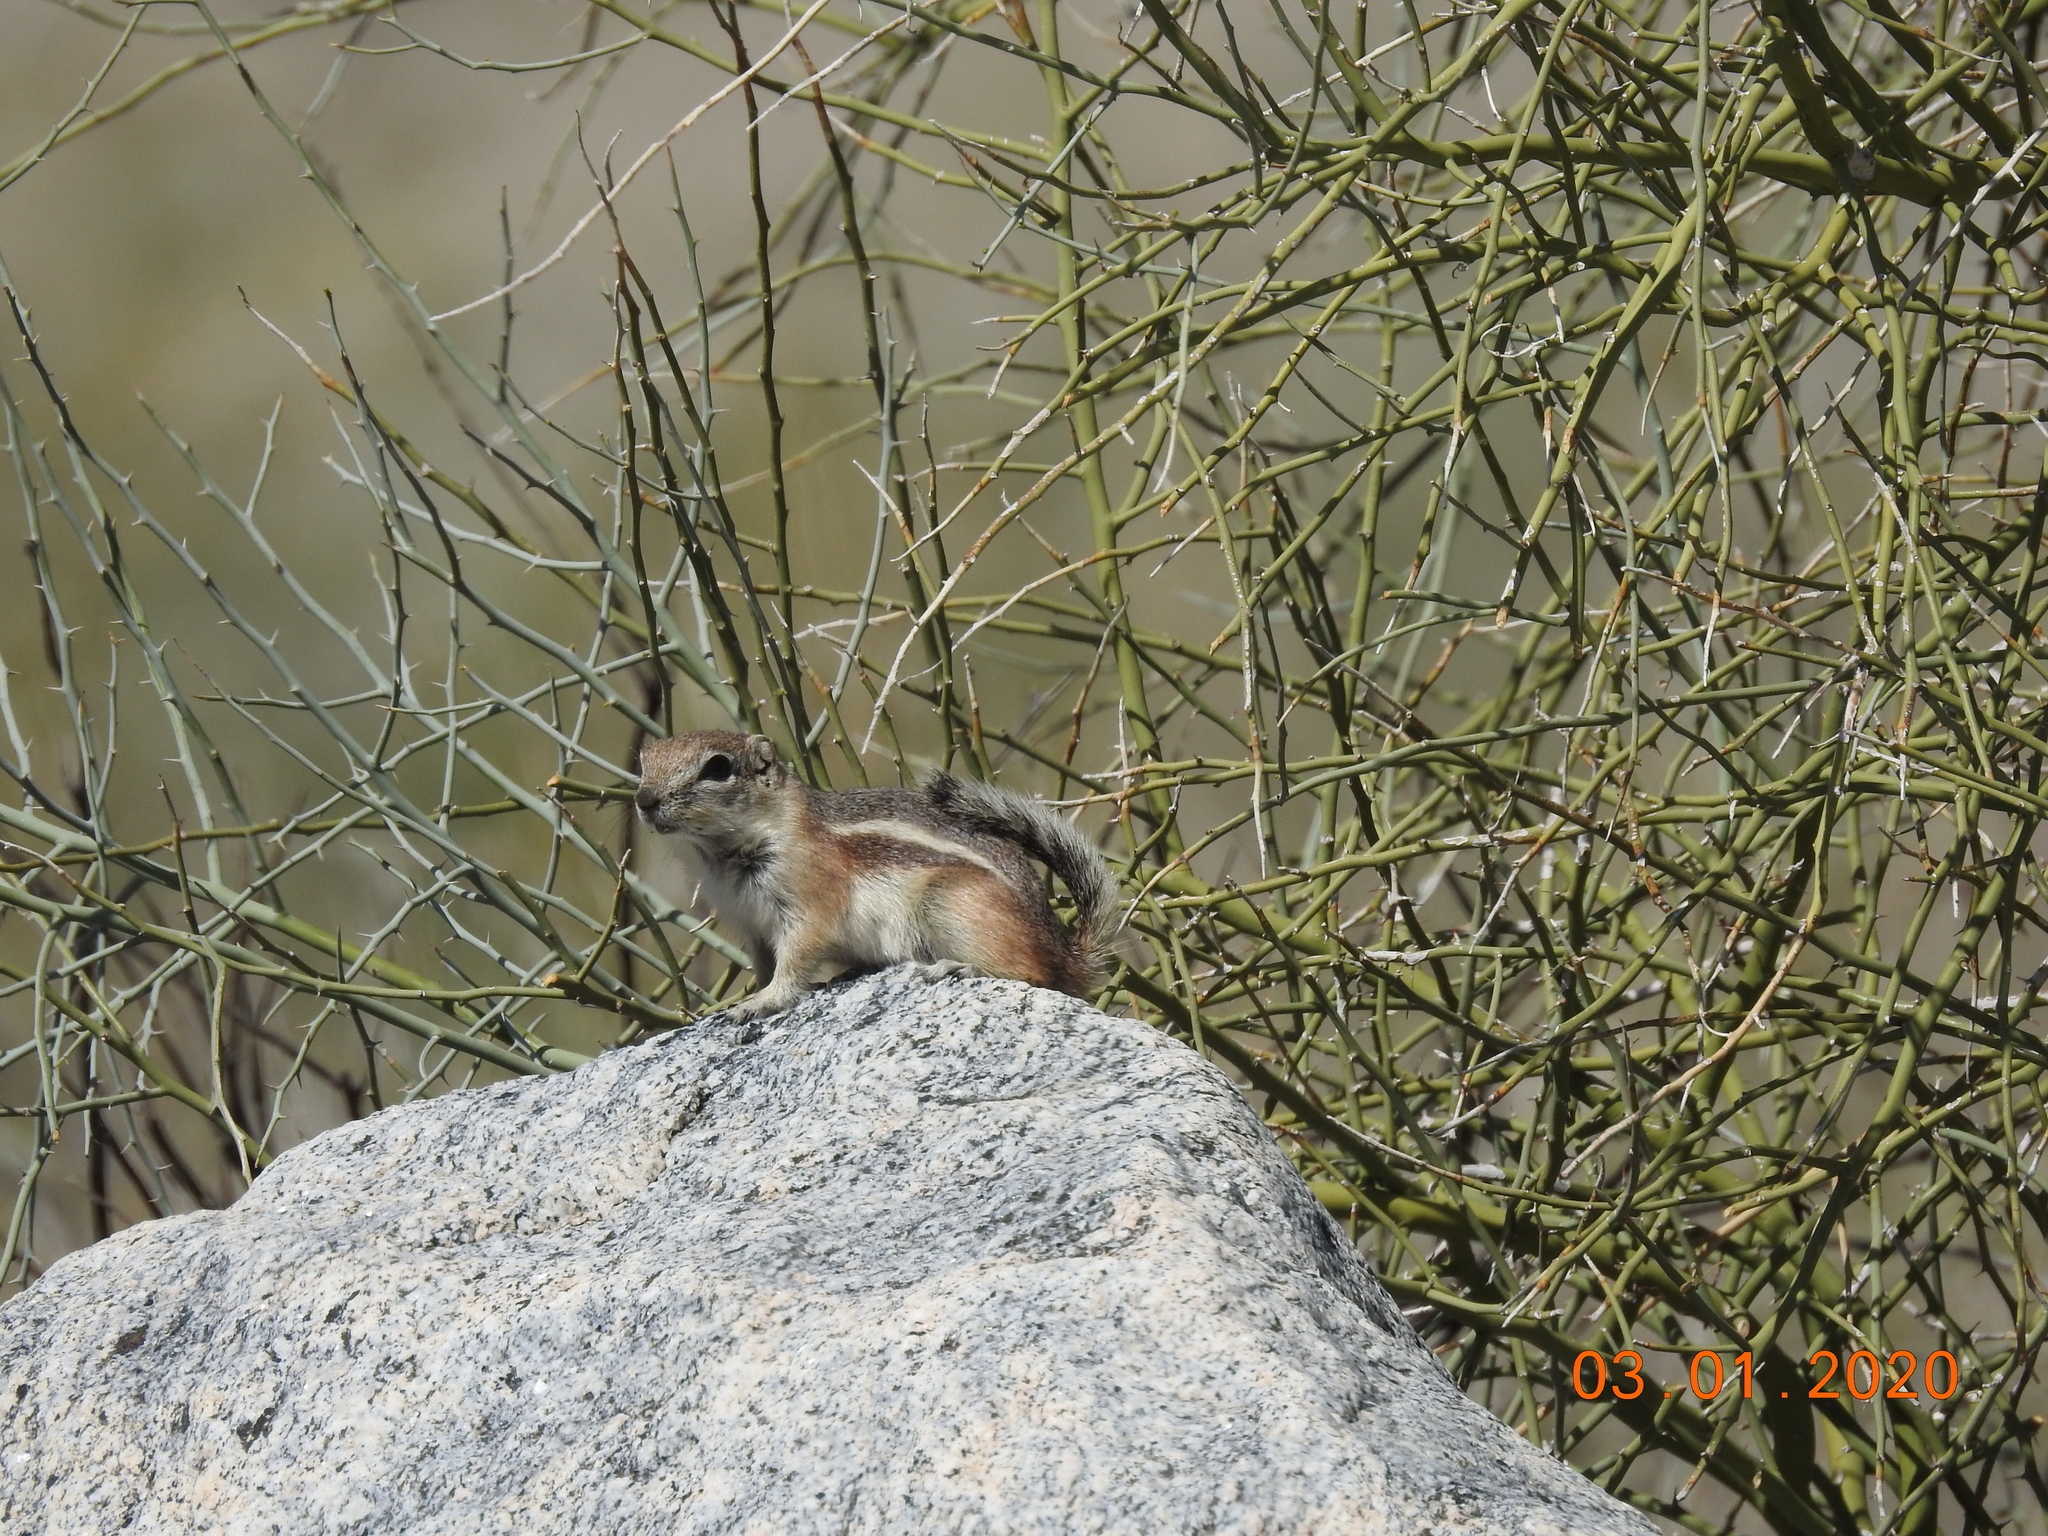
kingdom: Animalia
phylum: Chordata
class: Mammalia
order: Rodentia
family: Sciuridae
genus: Ammospermophilus
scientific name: Ammospermophilus leucurus
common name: White-tailed antelope squirrel
